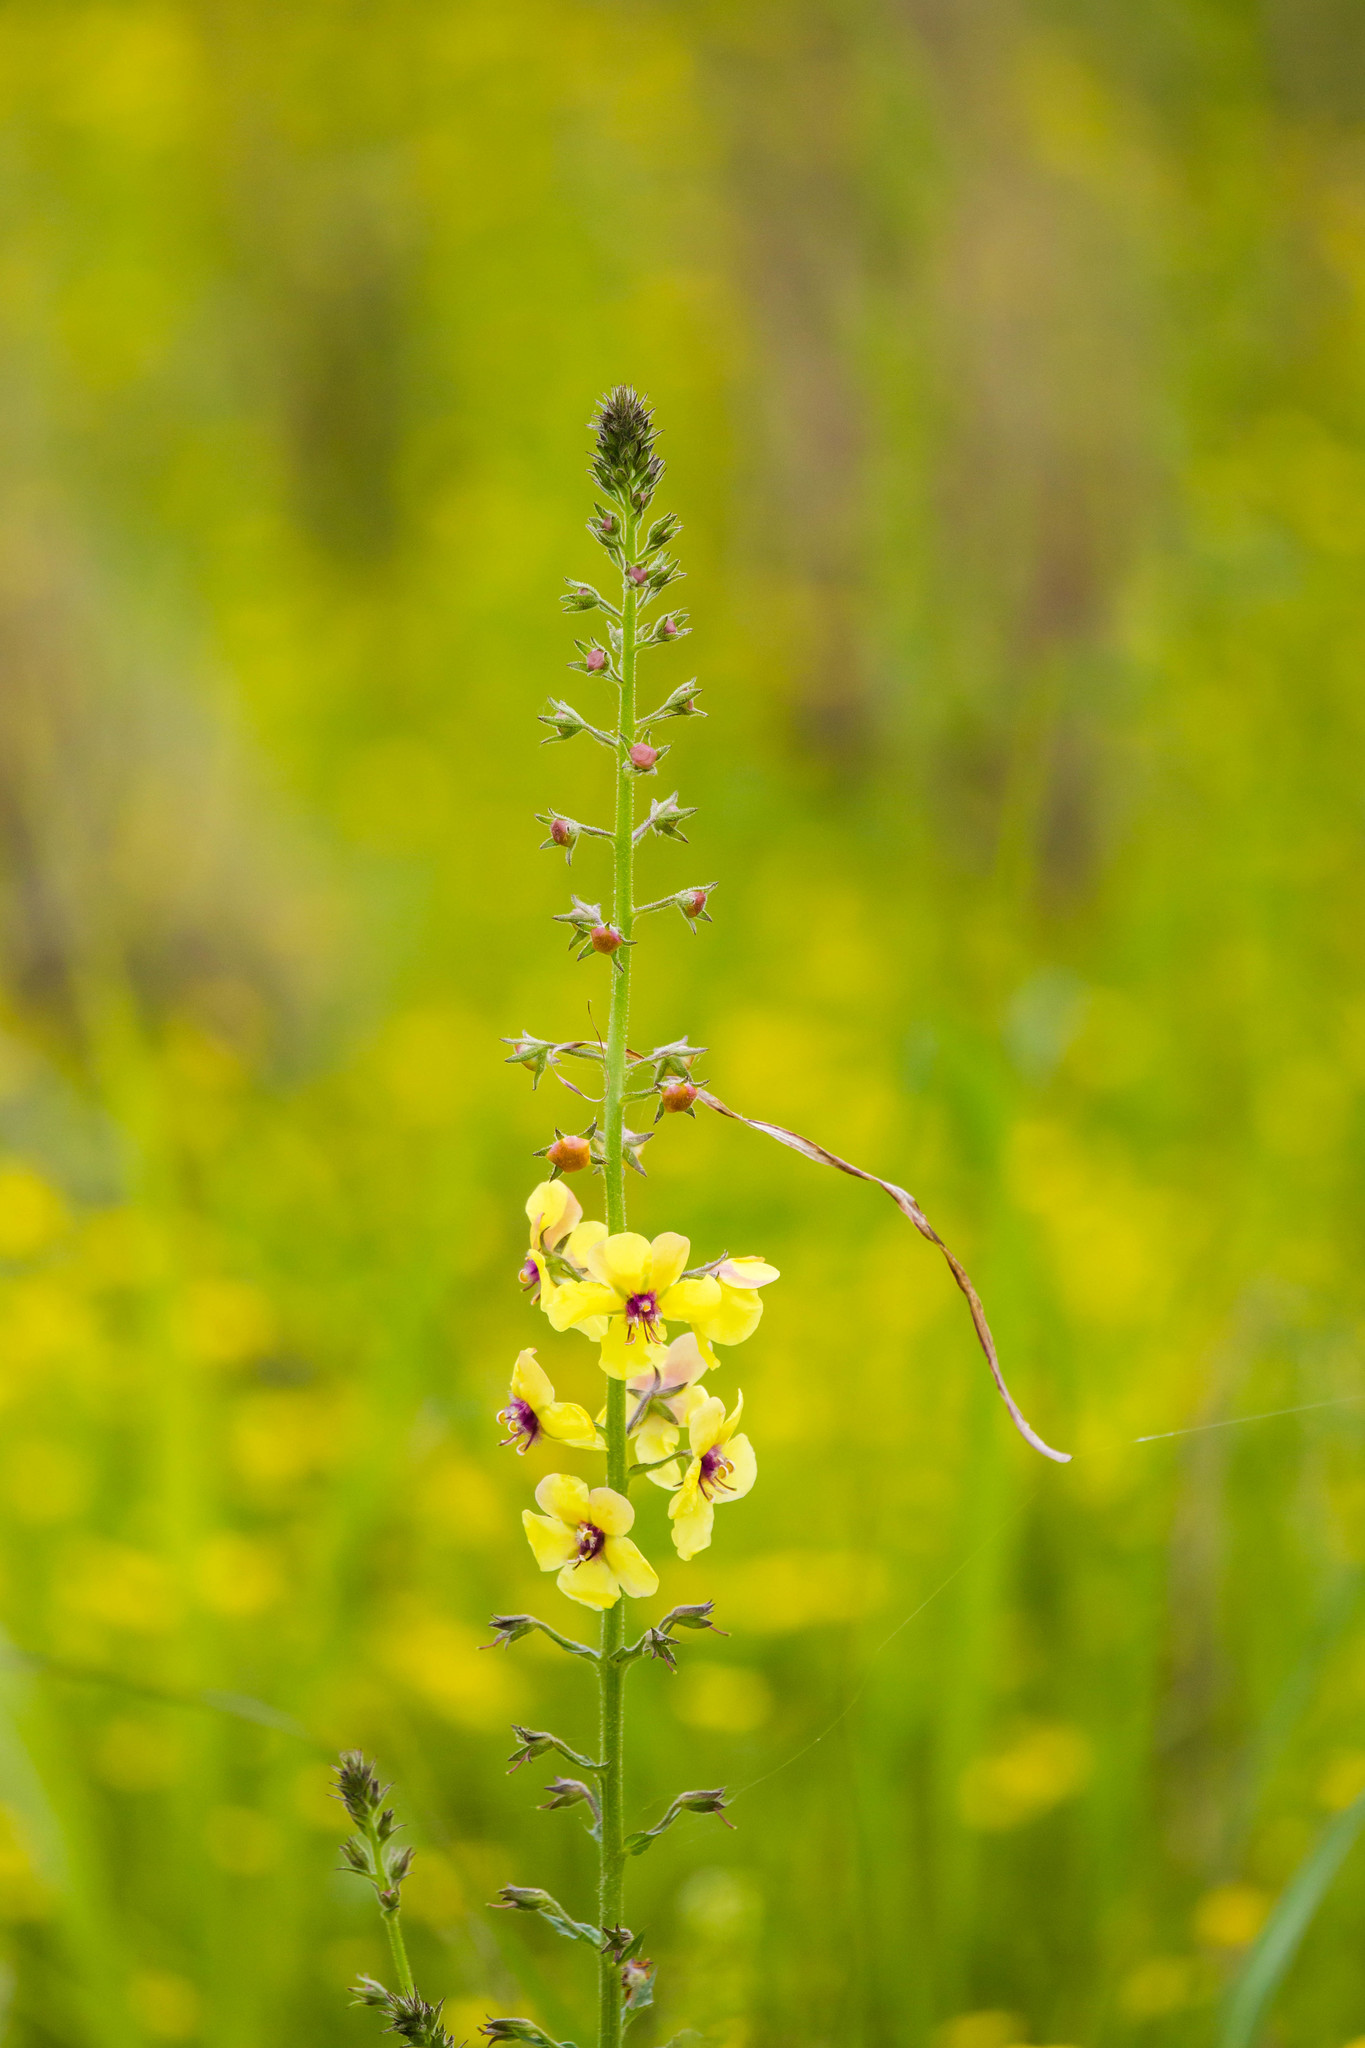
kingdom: Plantae
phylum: Tracheophyta
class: Magnoliopsida
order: Lamiales
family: Scrophulariaceae
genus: Verbascum
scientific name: Verbascum blattaria
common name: Moth mullein
